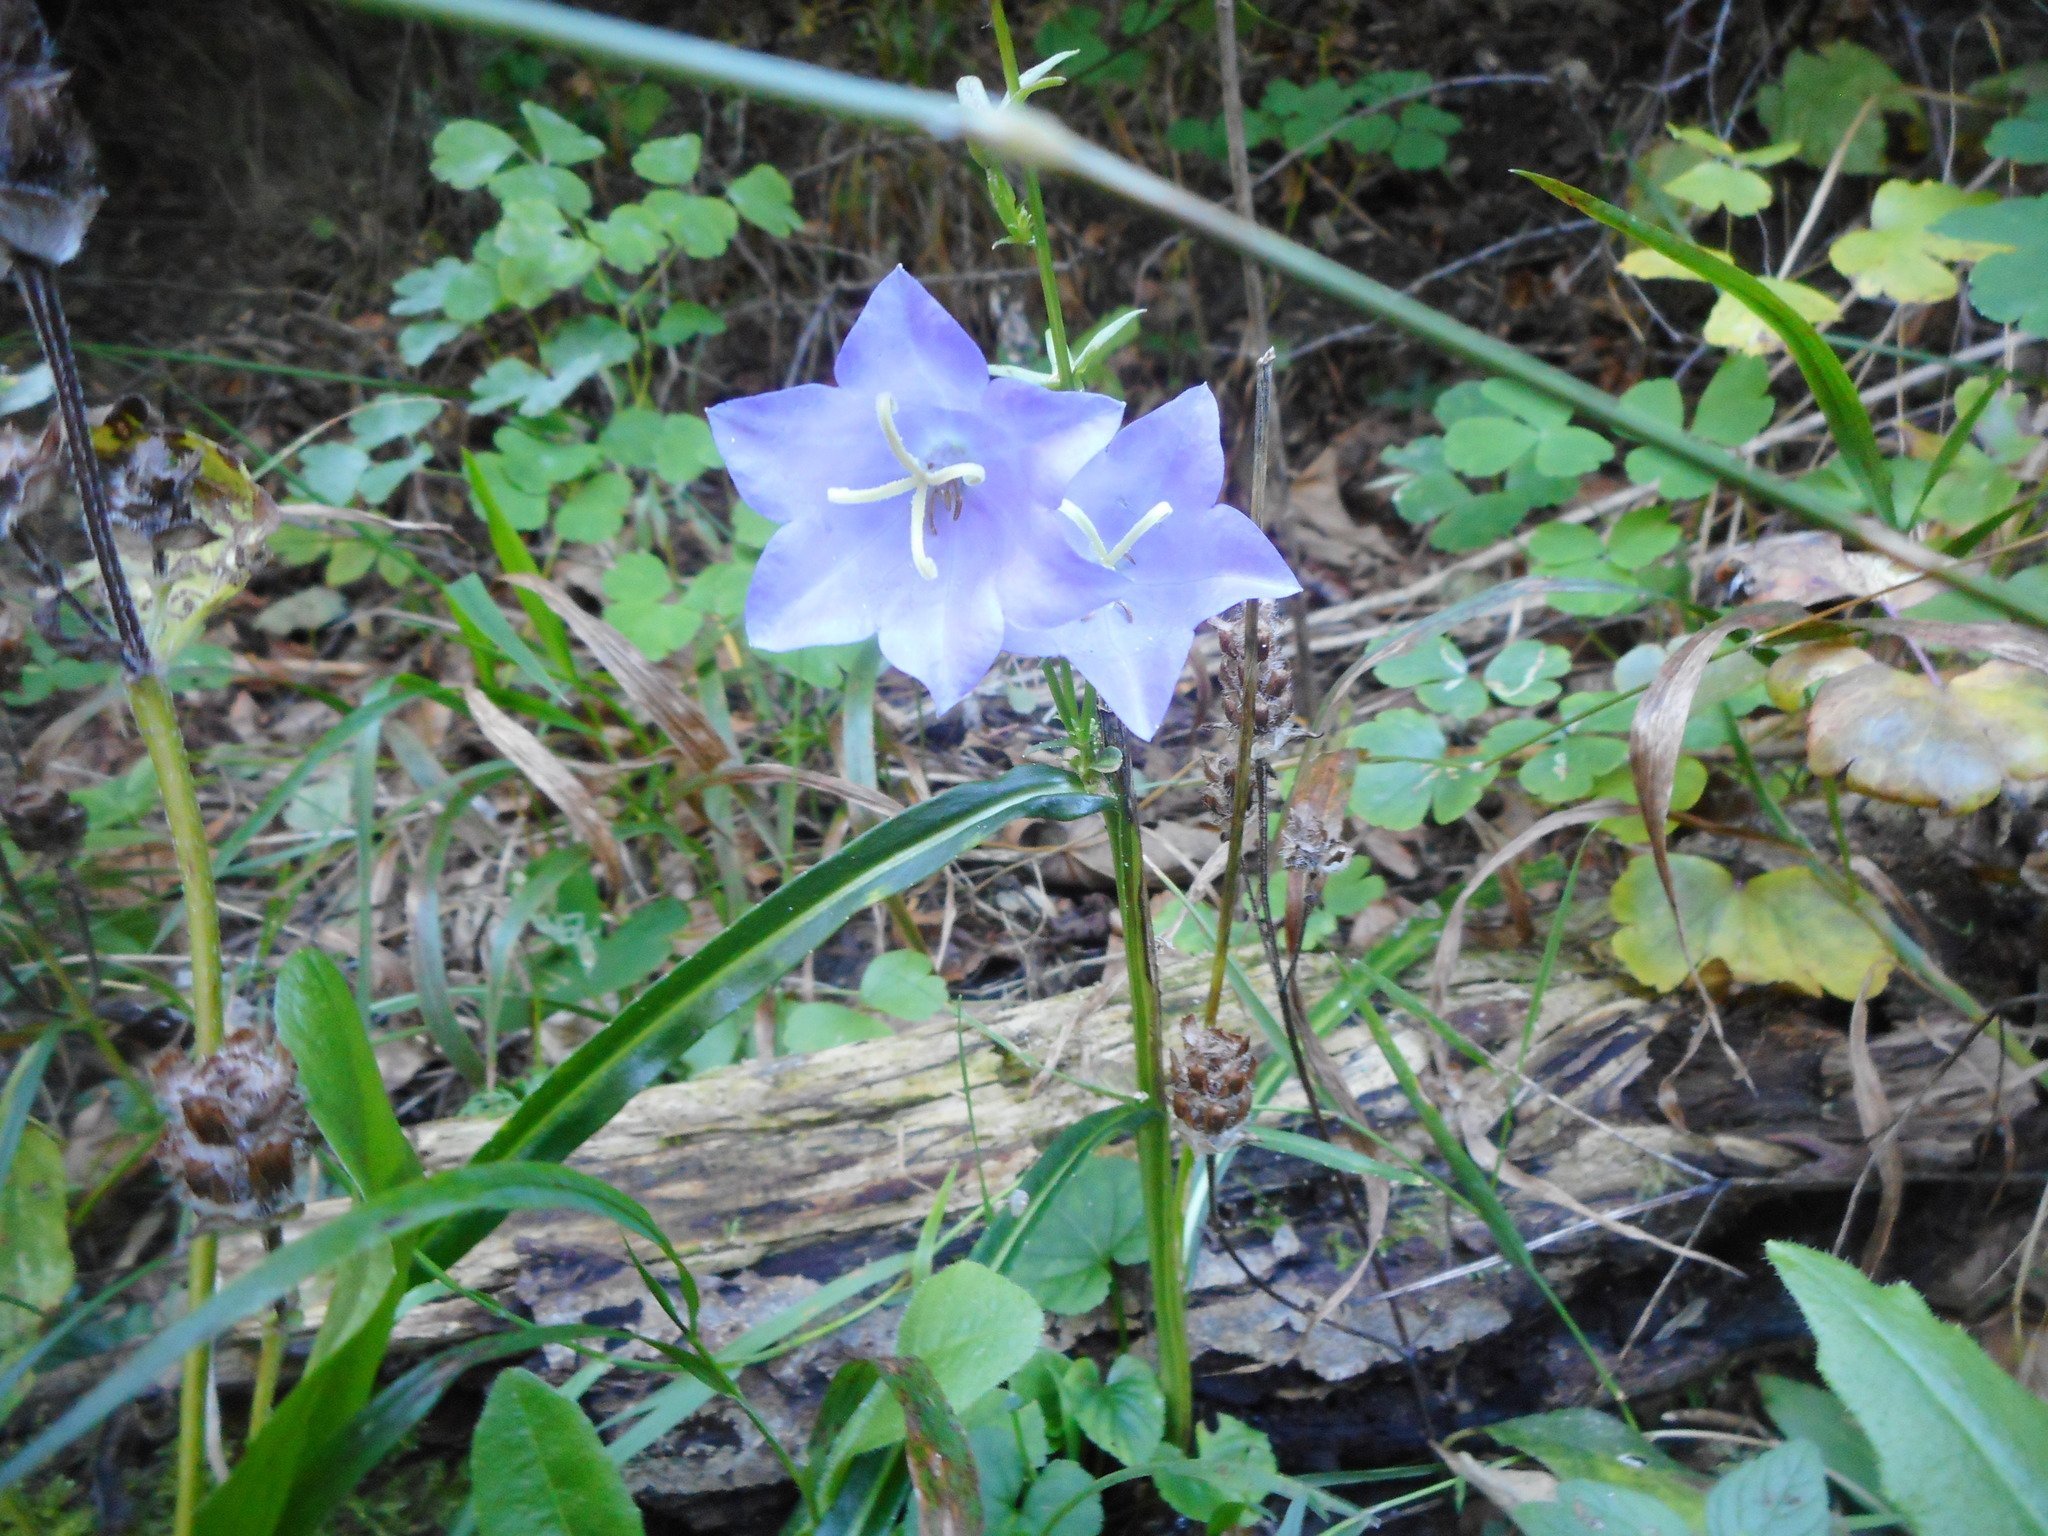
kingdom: Plantae
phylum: Tracheophyta
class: Magnoliopsida
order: Asterales
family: Campanulaceae
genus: Campanula
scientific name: Campanula persicifolia
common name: Peach-leaved bellflower
